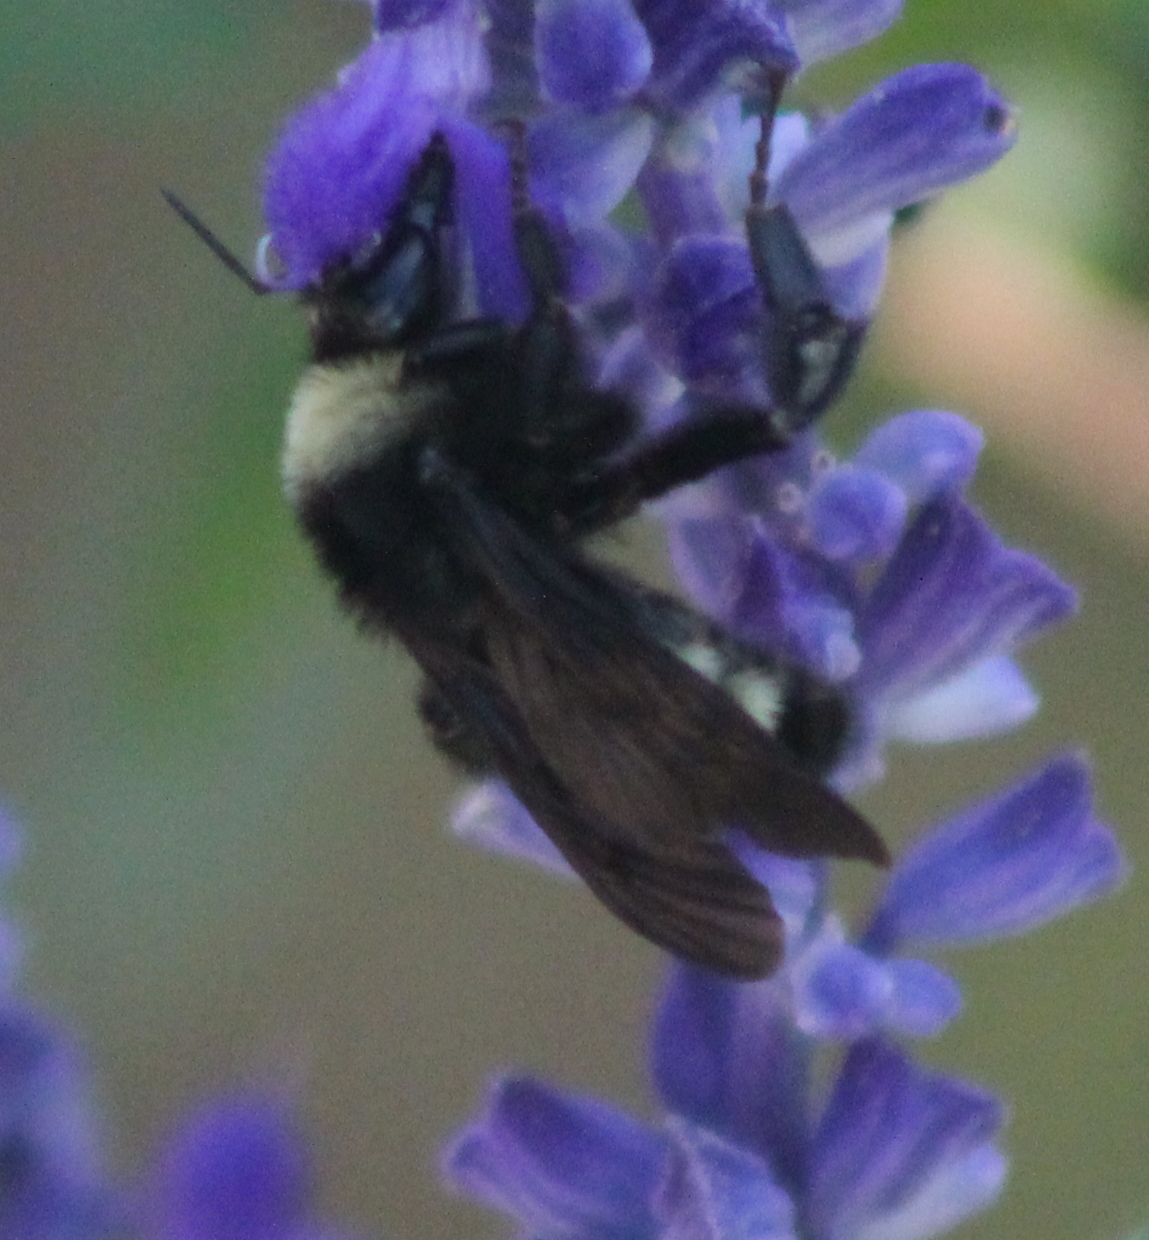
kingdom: Animalia
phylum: Arthropoda
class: Insecta
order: Hymenoptera
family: Apidae
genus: Bombus
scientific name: Bombus pensylvanicus
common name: Bumble bee
